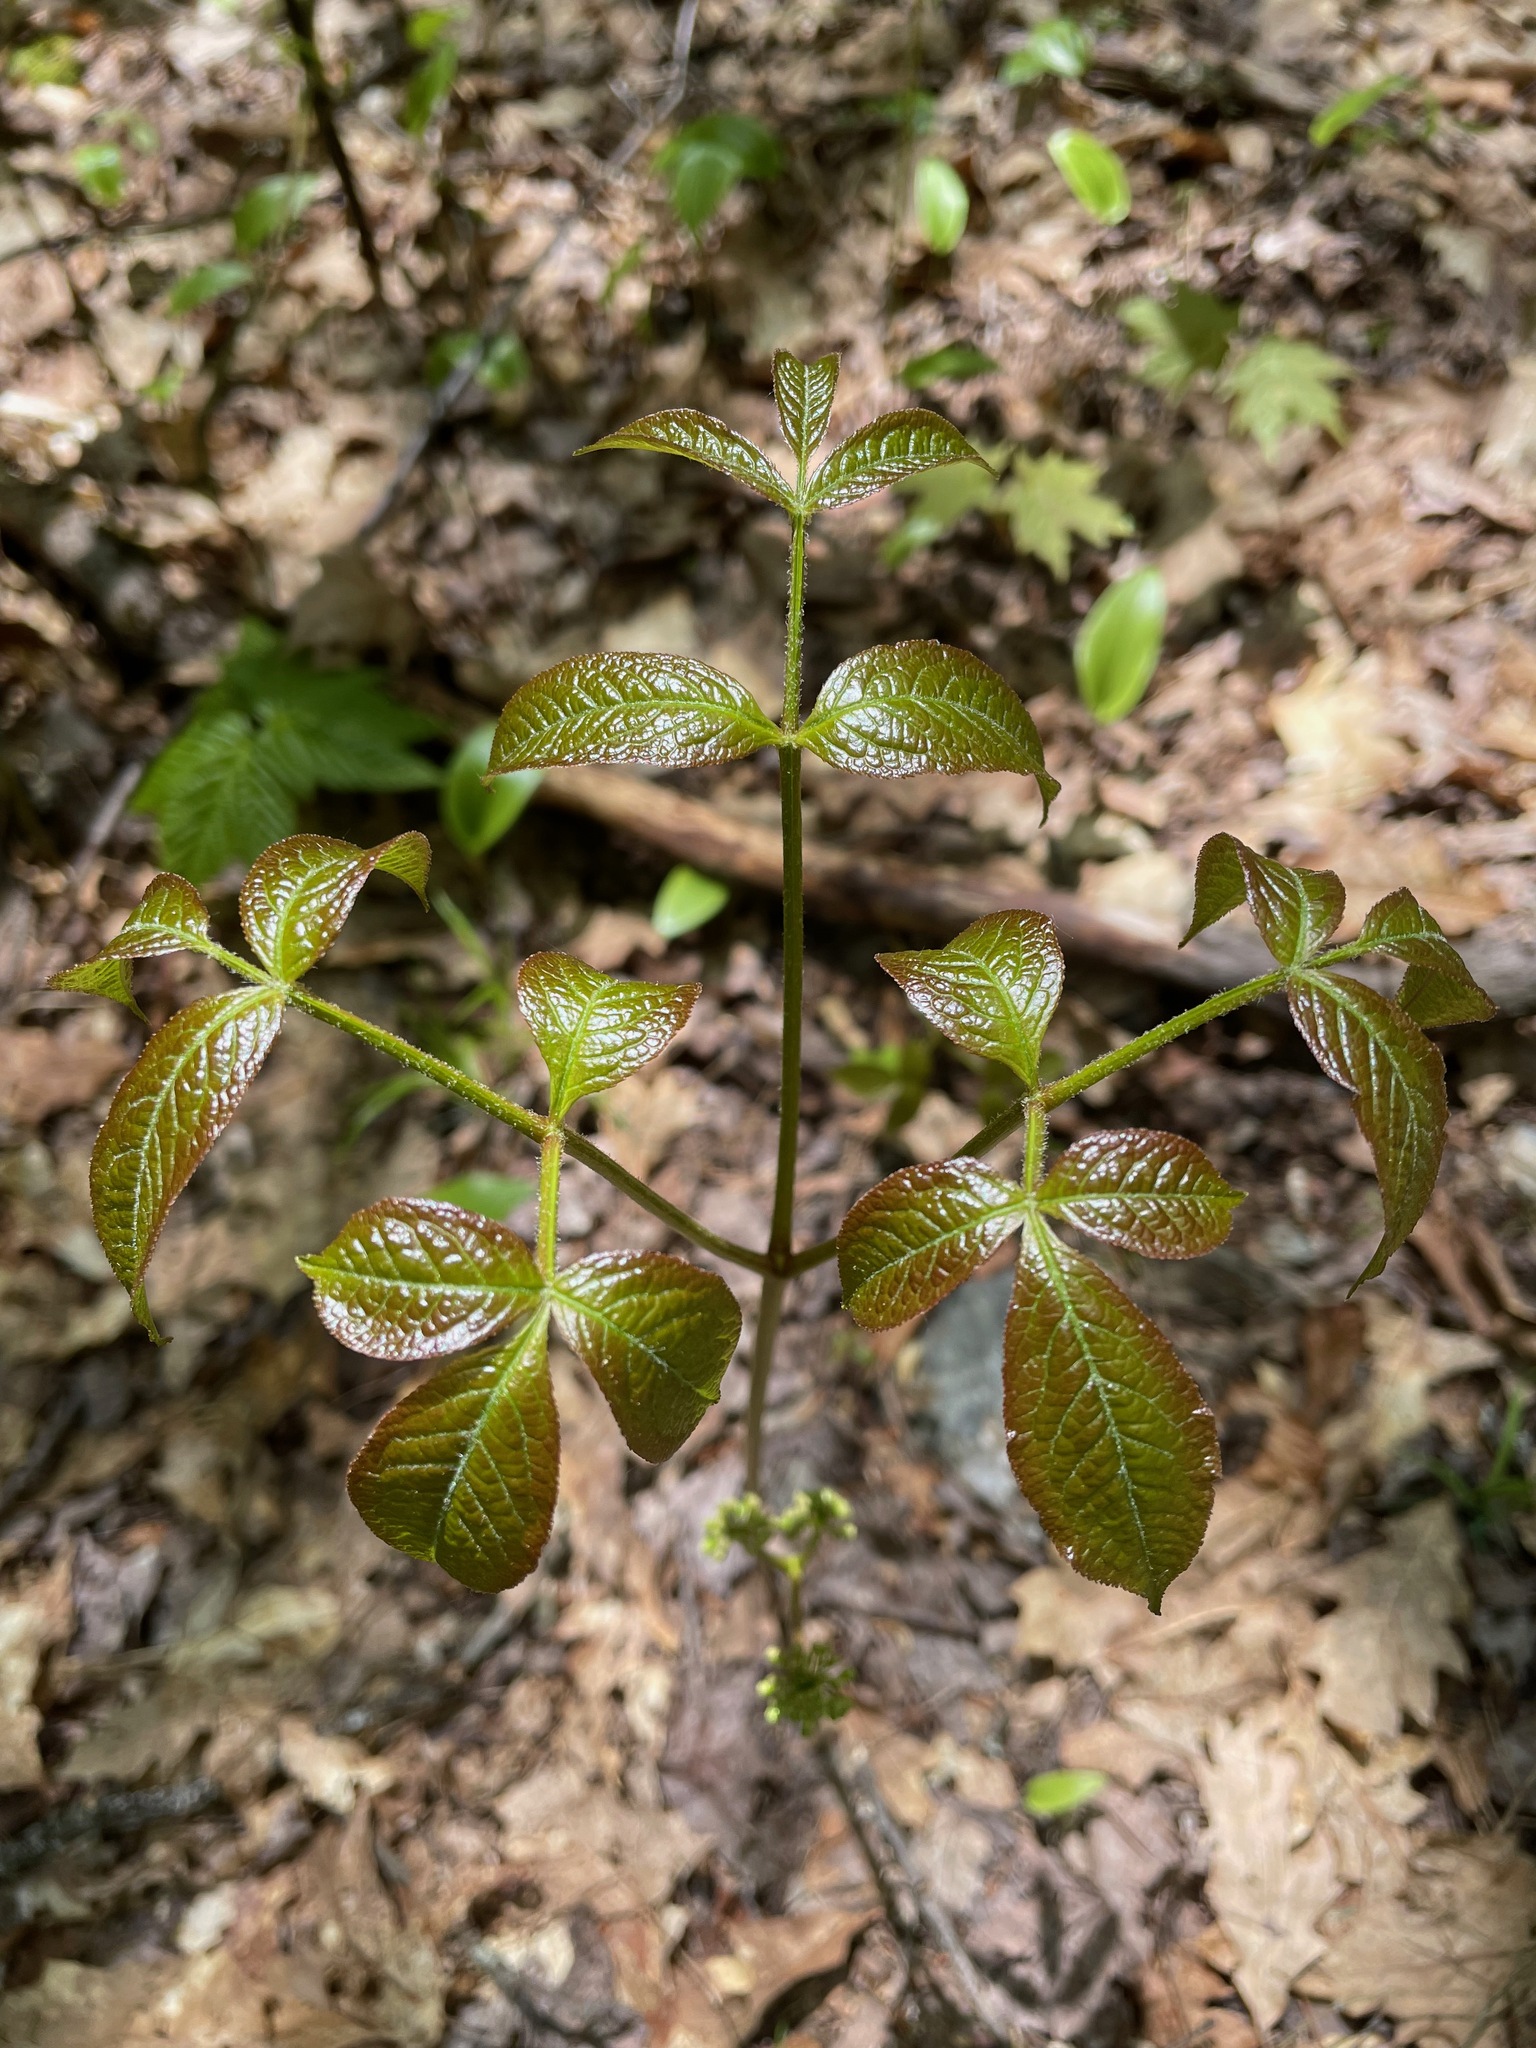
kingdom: Plantae
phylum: Tracheophyta
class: Magnoliopsida
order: Apiales
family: Araliaceae
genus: Aralia
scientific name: Aralia nudicaulis
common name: Wild sarsaparilla
